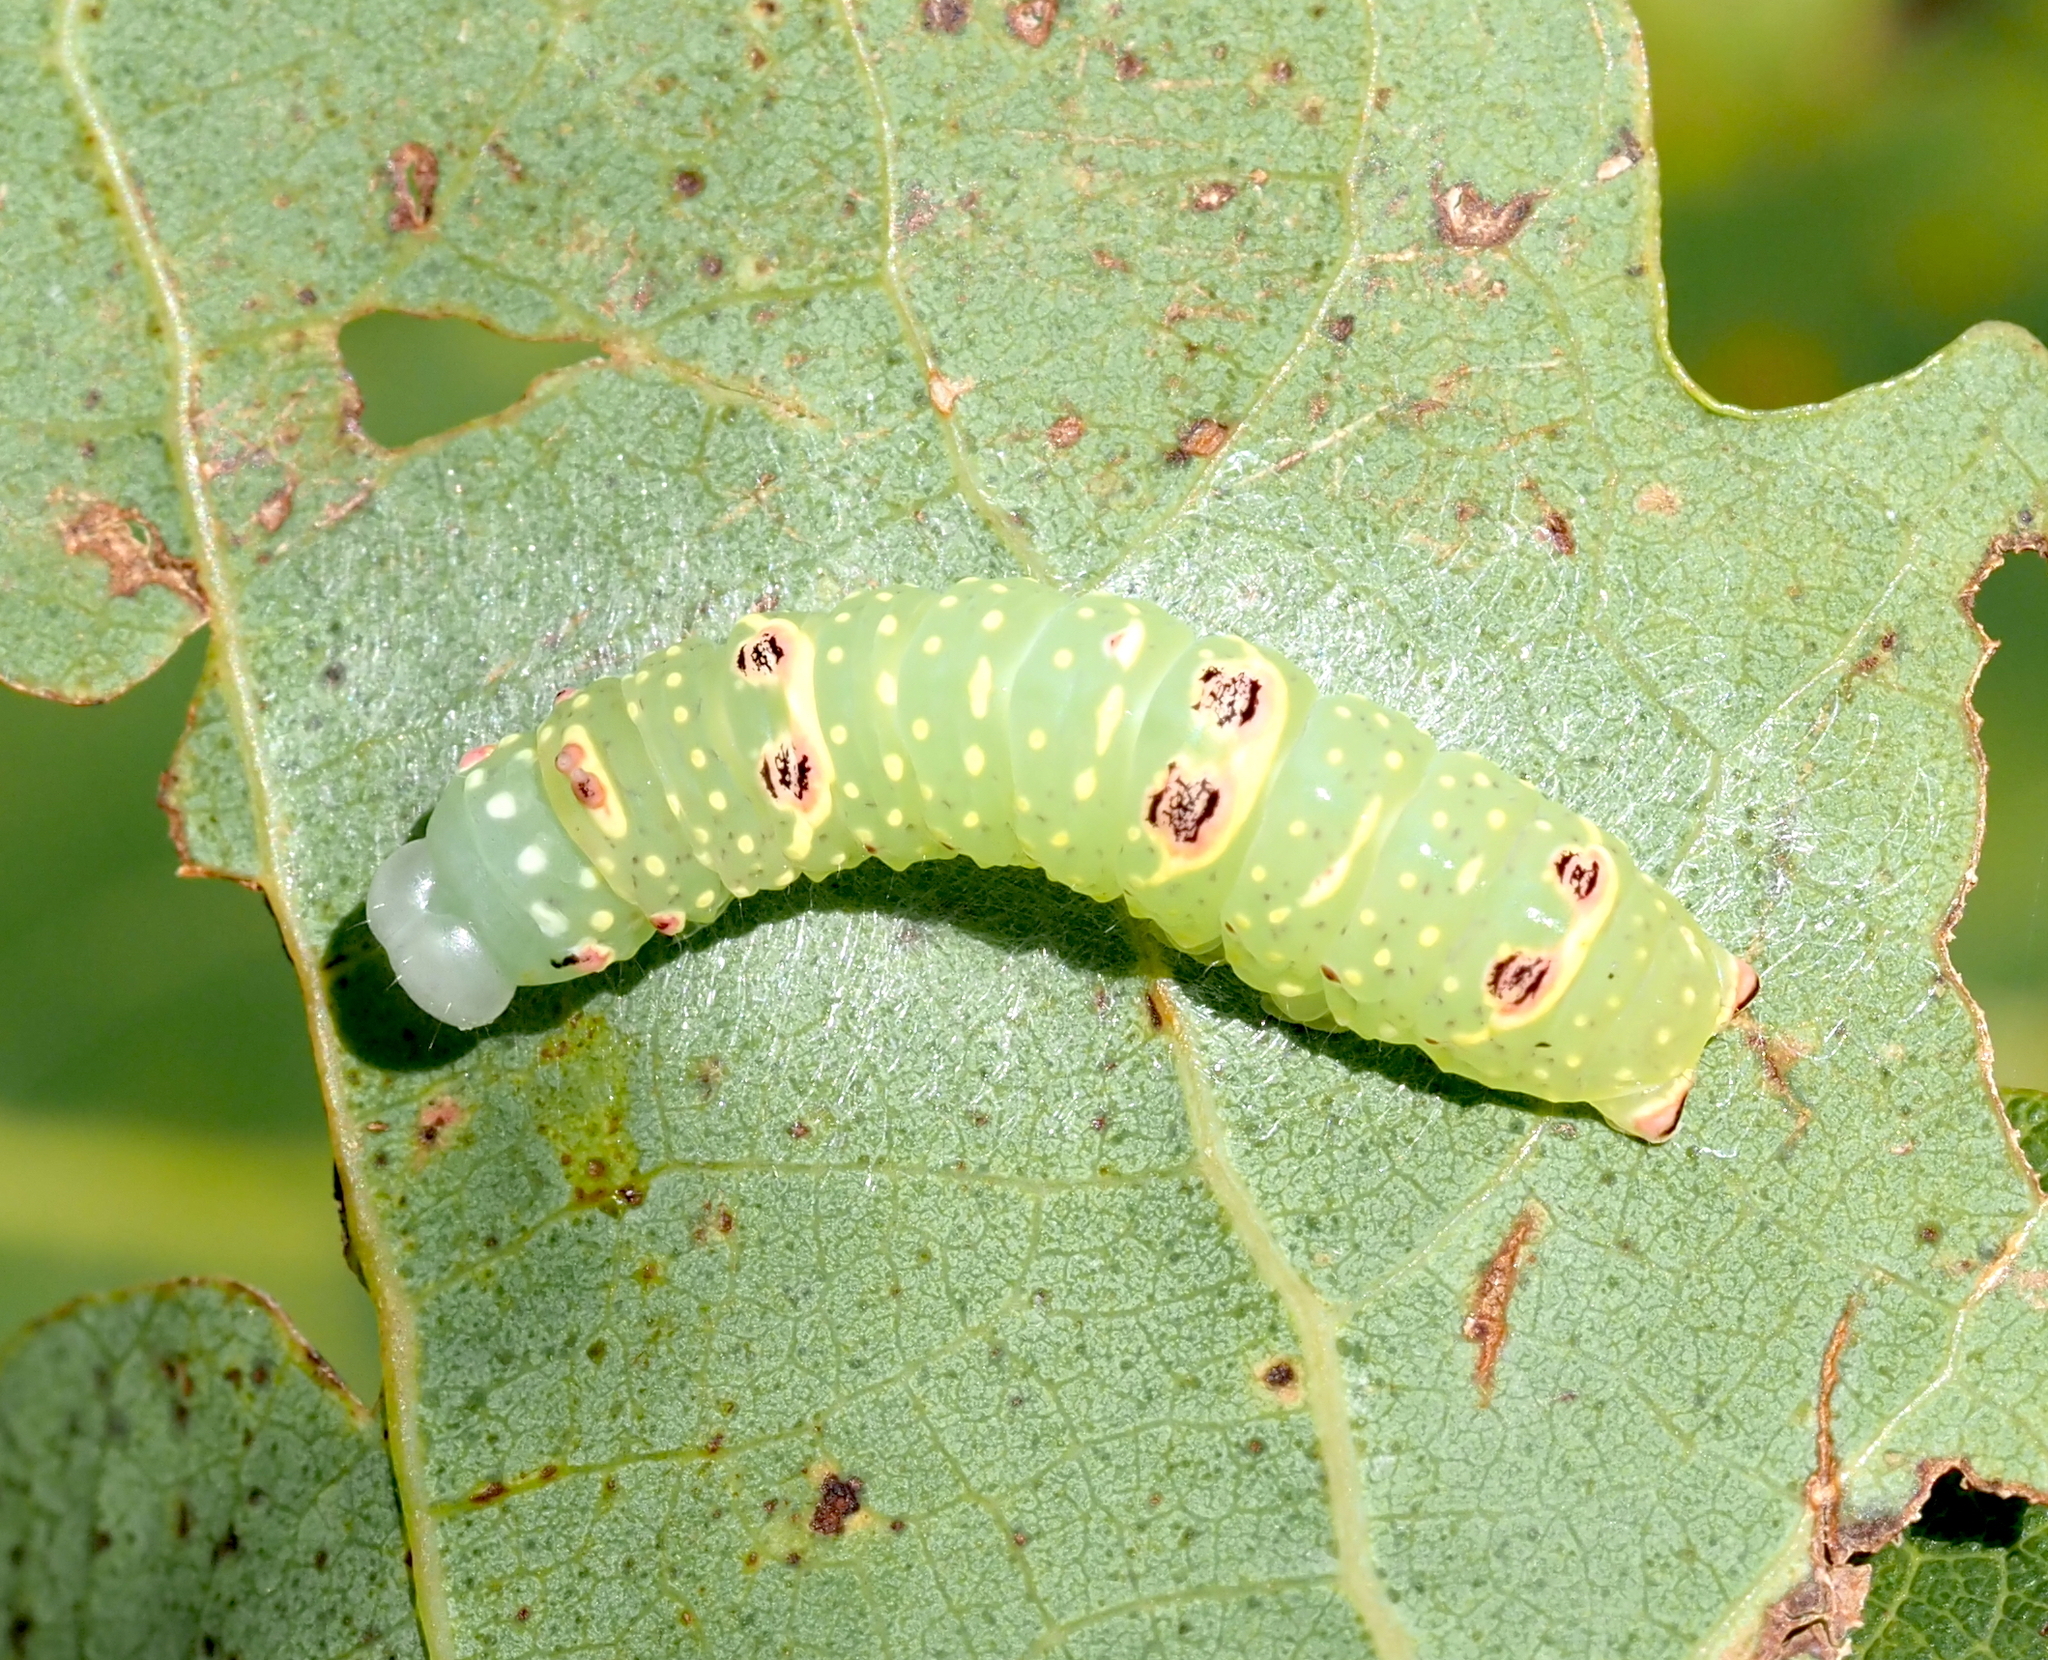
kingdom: Animalia
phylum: Arthropoda
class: Insecta
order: Lepidoptera
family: Noctuidae
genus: Raphia
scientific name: Raphia frater
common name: Brother
